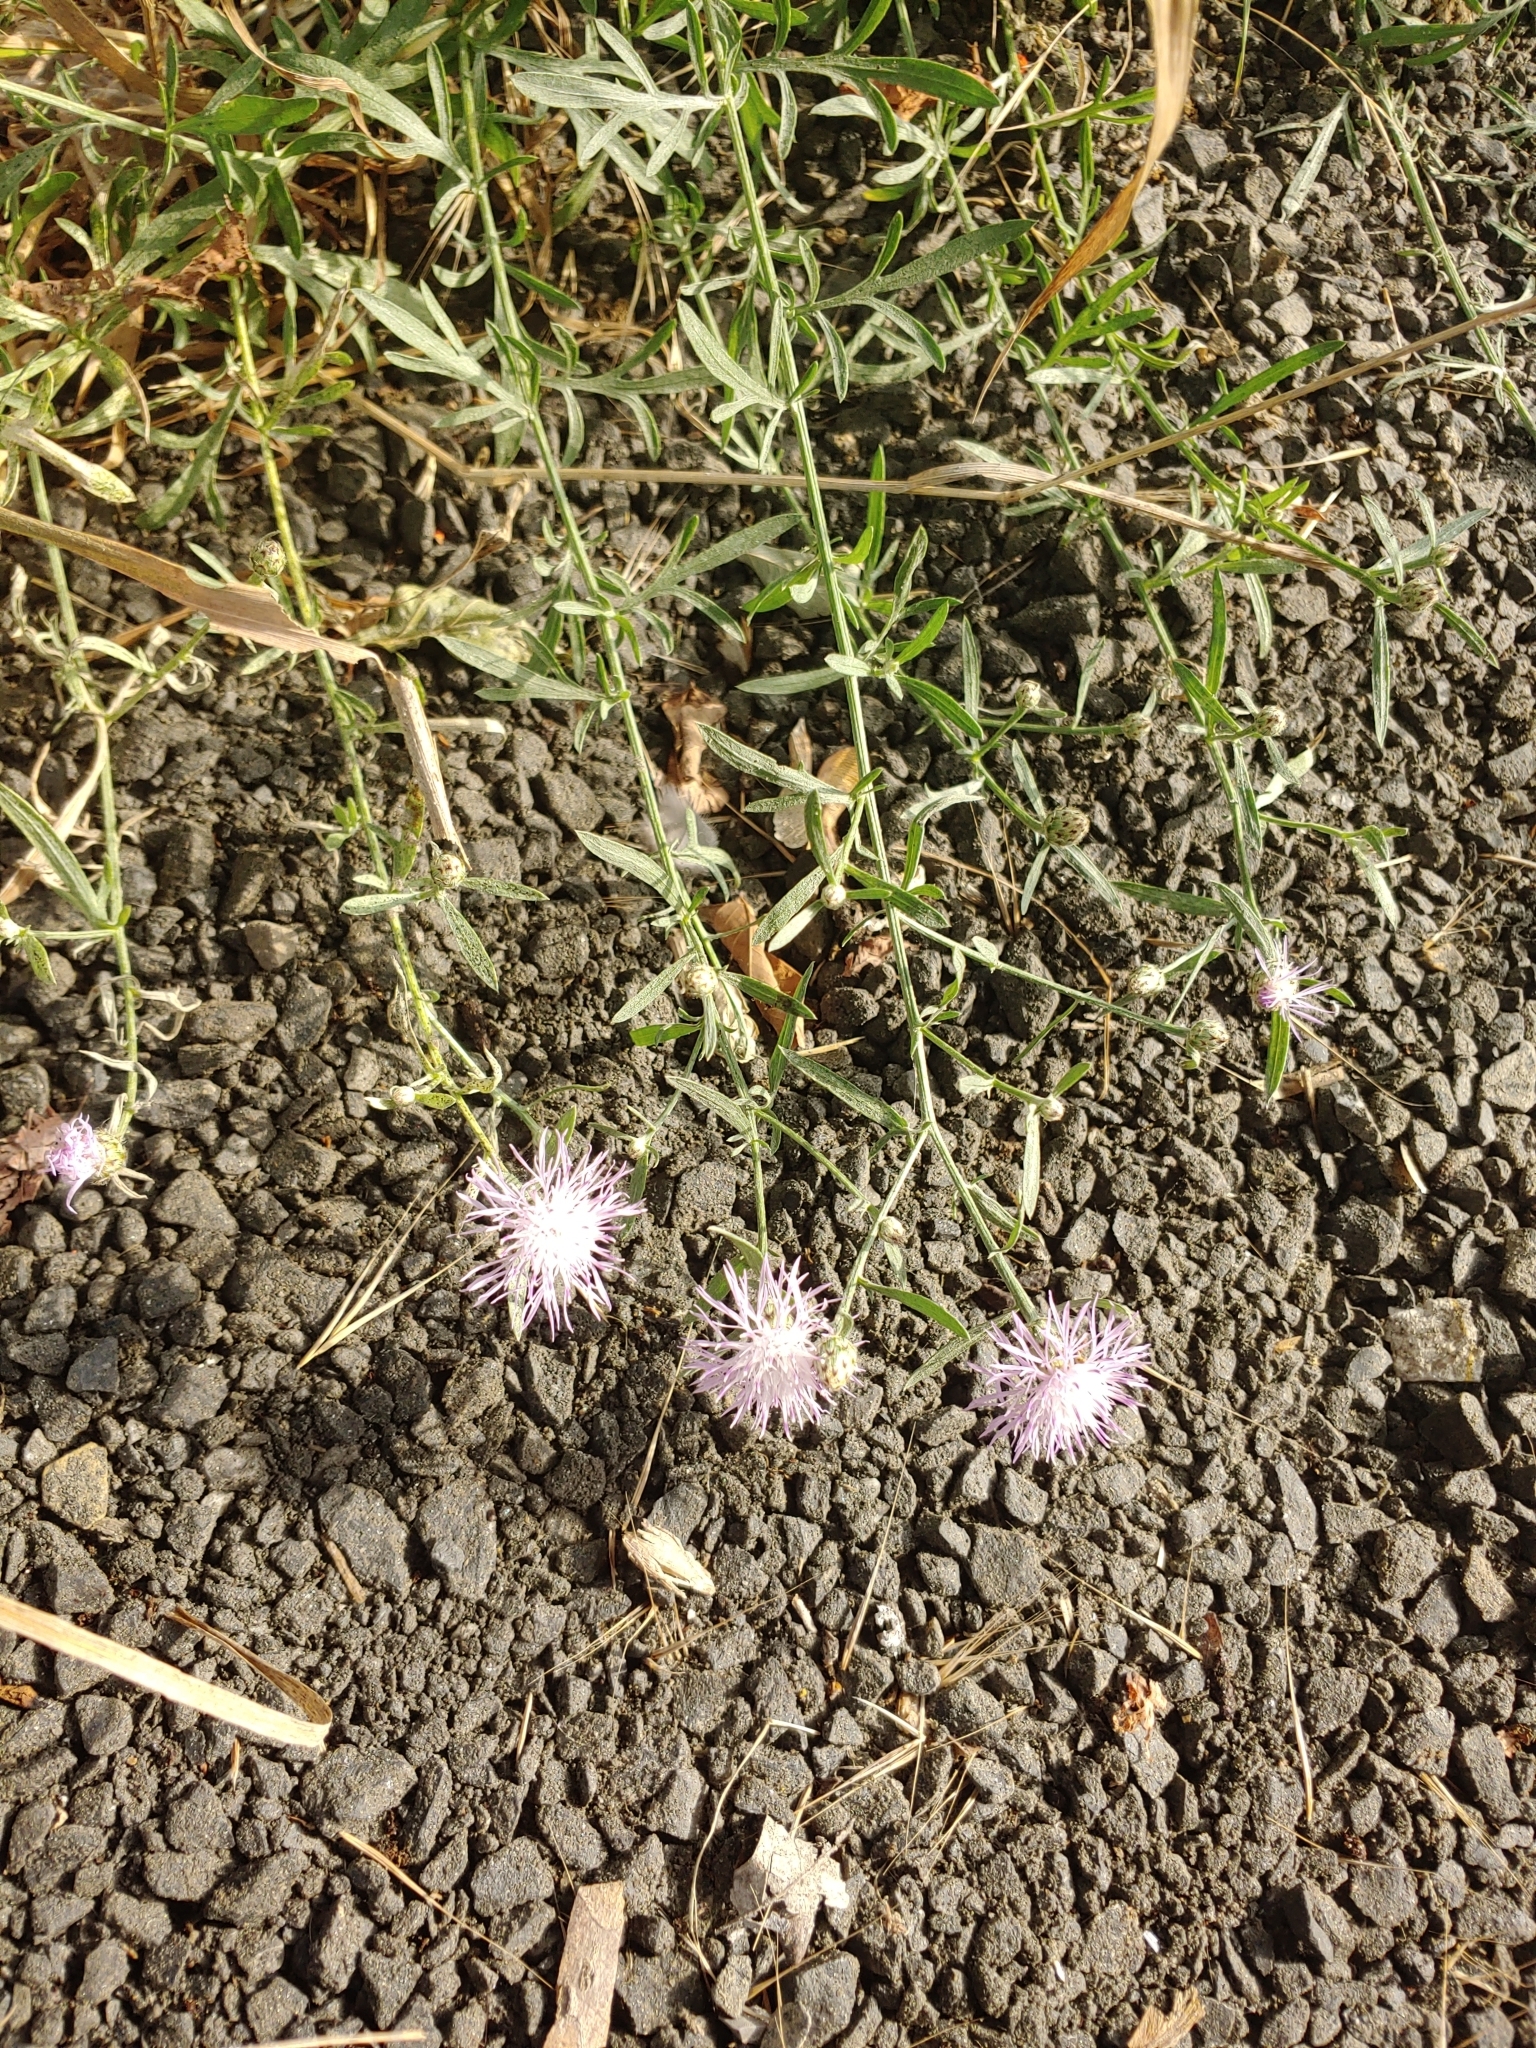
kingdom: Plantae
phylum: Tracheophyta
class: Magnoliopsida
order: Asterales
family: Asteraceae
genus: Centaurea
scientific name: Centaurea stoebe
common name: Spotted knapweed
